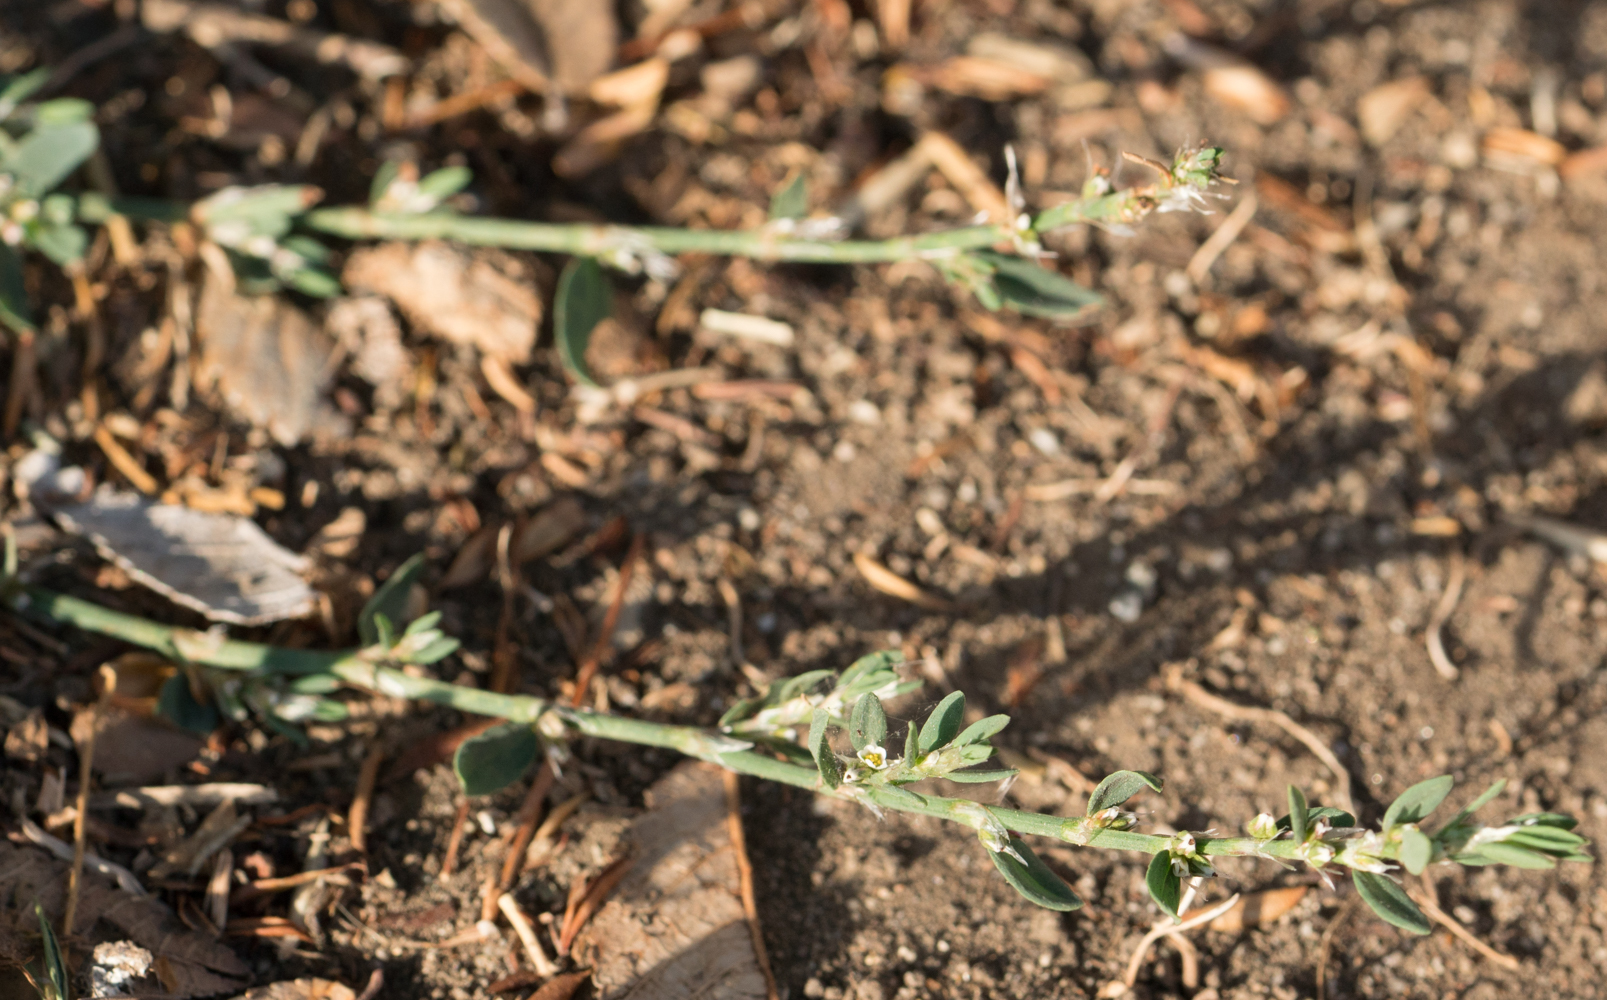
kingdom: Plantae
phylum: Tracheophyta
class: Magnoliopsida
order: Caryophyllales
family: Polygonaceae
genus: Polygonum
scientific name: Polygonum aviculare
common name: Prostrate knotweed
